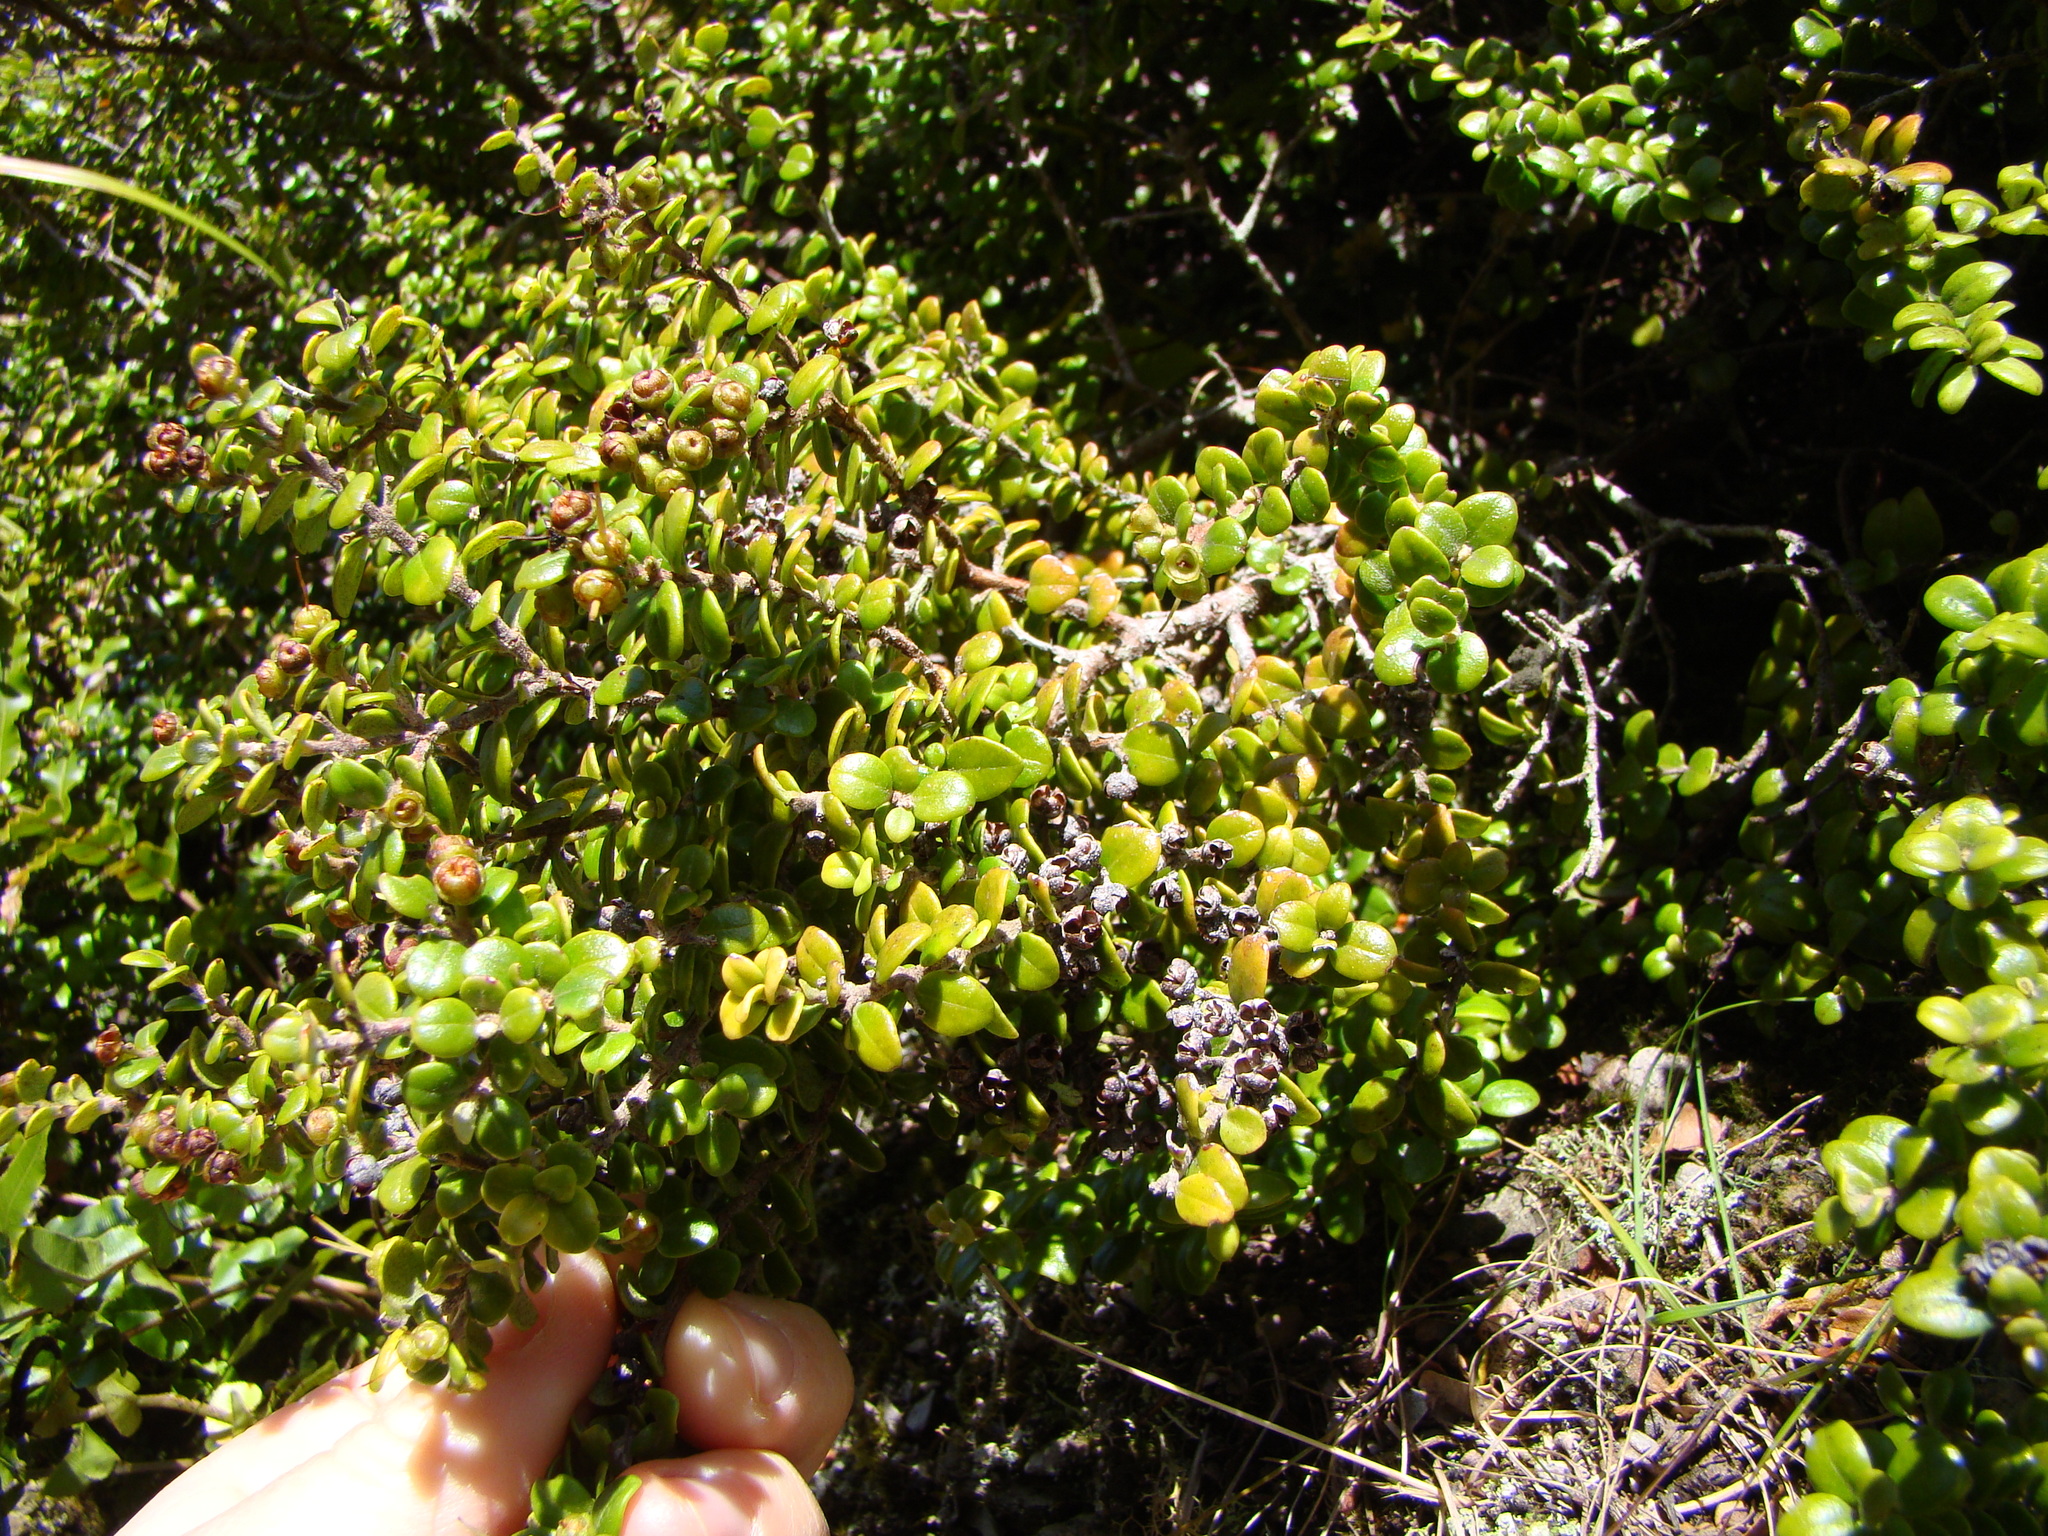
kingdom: Plantae
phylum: Tracheophyta
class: Magnoliopsida
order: Myrtales
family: Myrtaceae
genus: Metrosideros
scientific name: Metrosideros perforata
